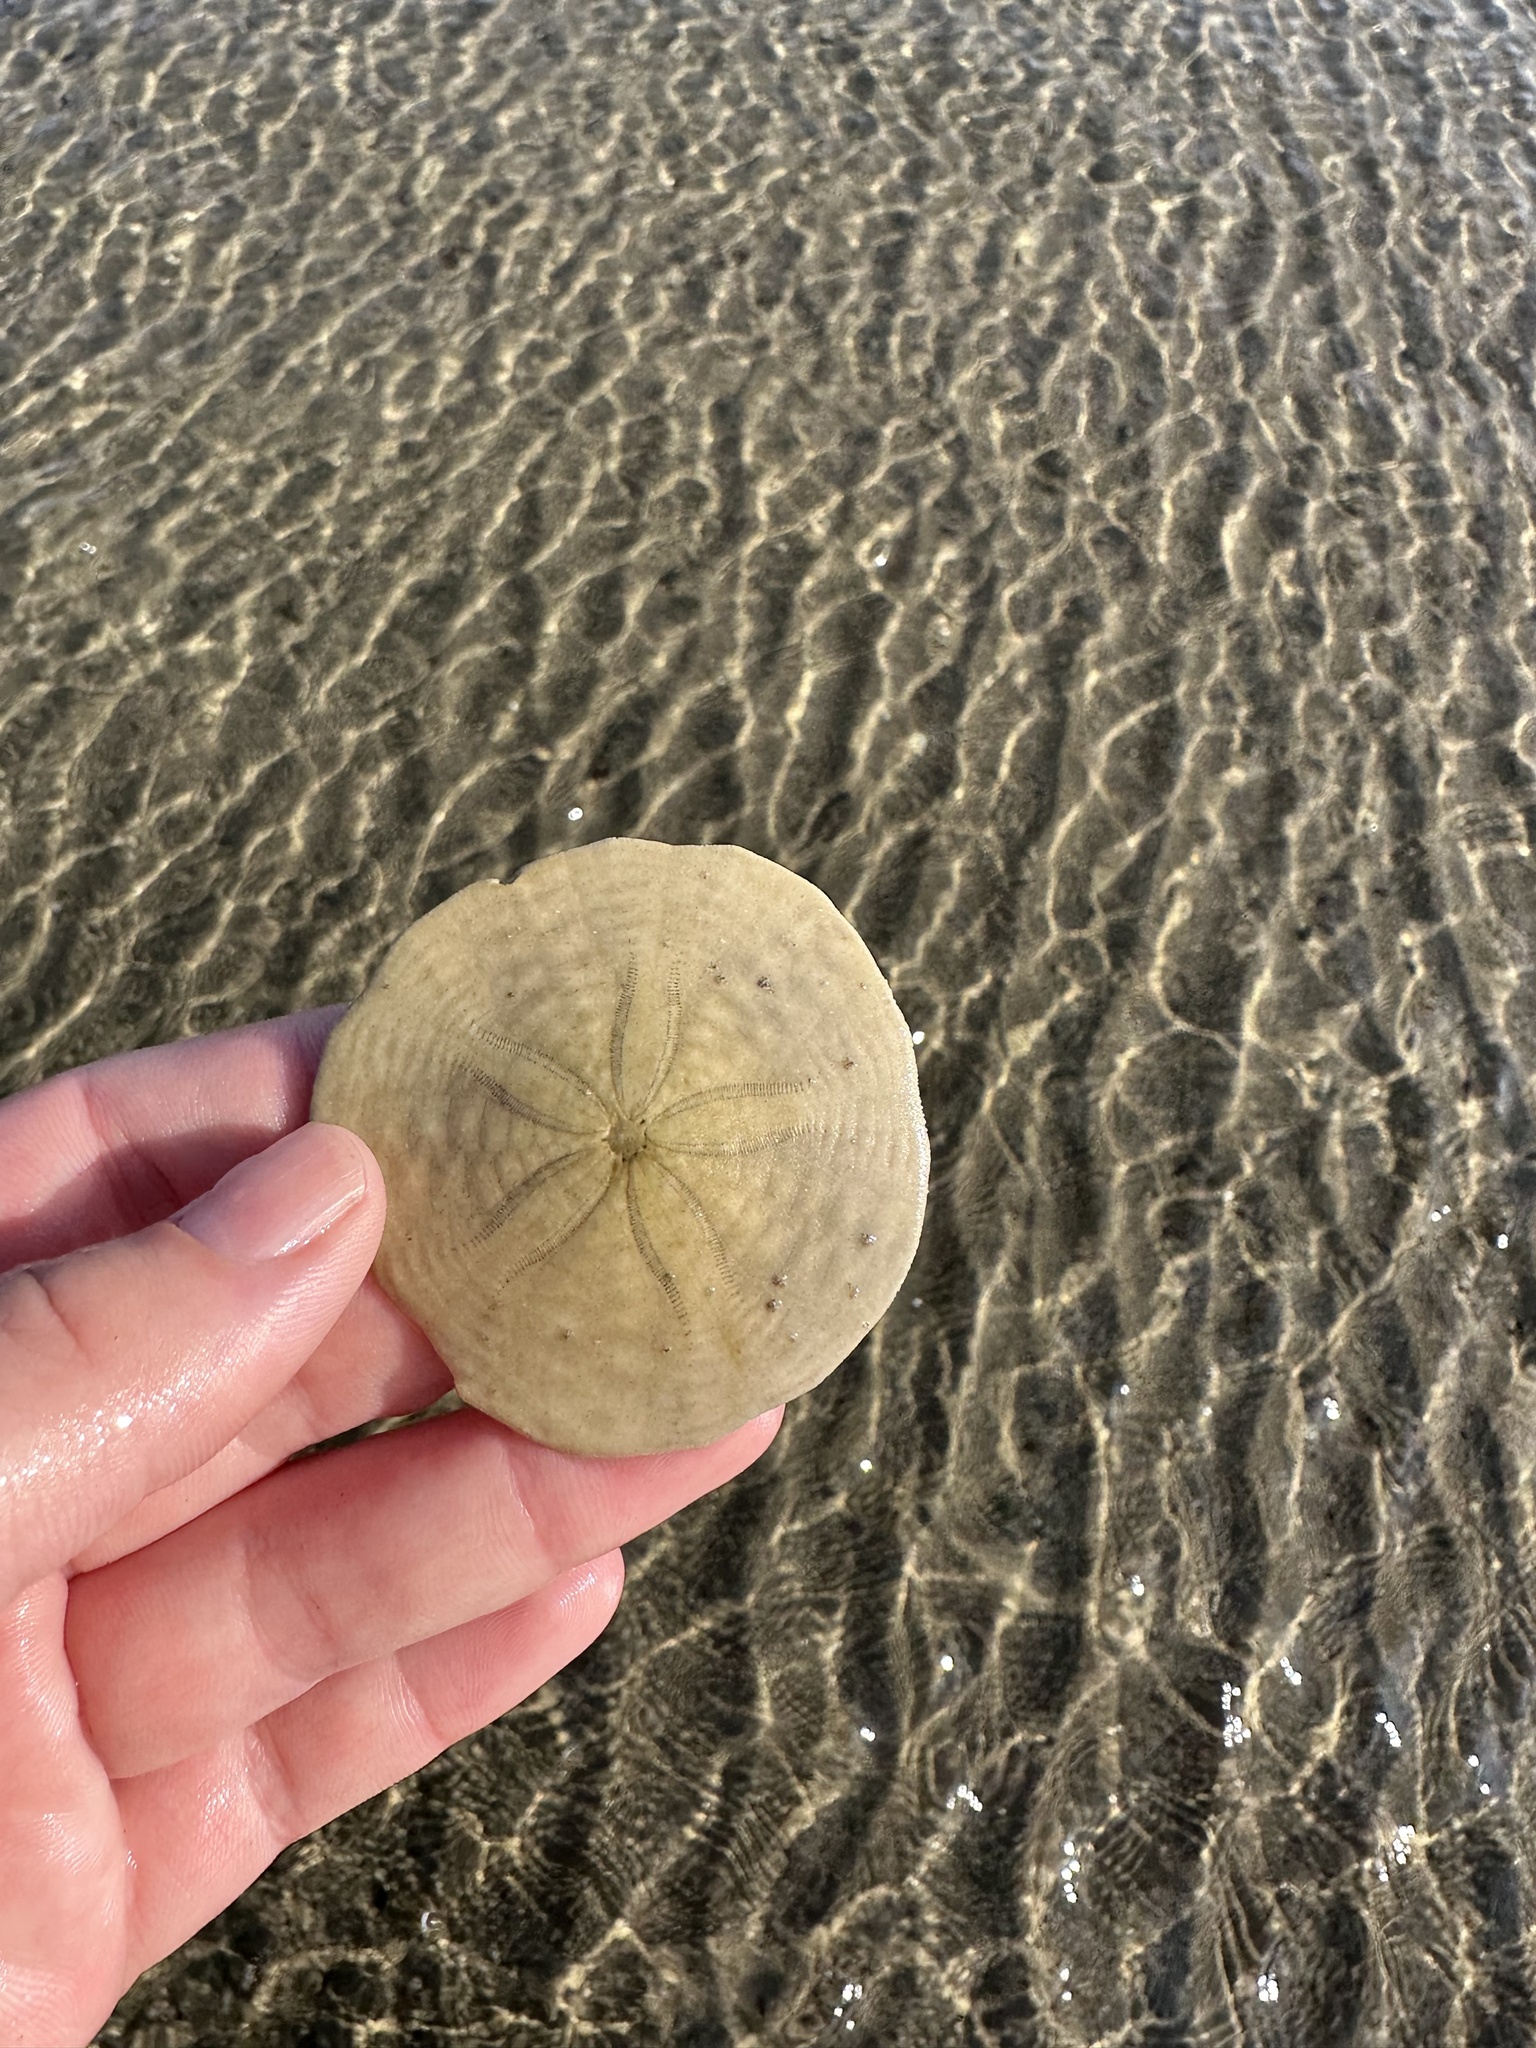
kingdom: Animalia
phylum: Echinodermata
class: Echinoidea
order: Echinolampadacea
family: Echinarachniidae
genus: Echinarachnius
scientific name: Echinarachnius parma
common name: Common sand dollar
